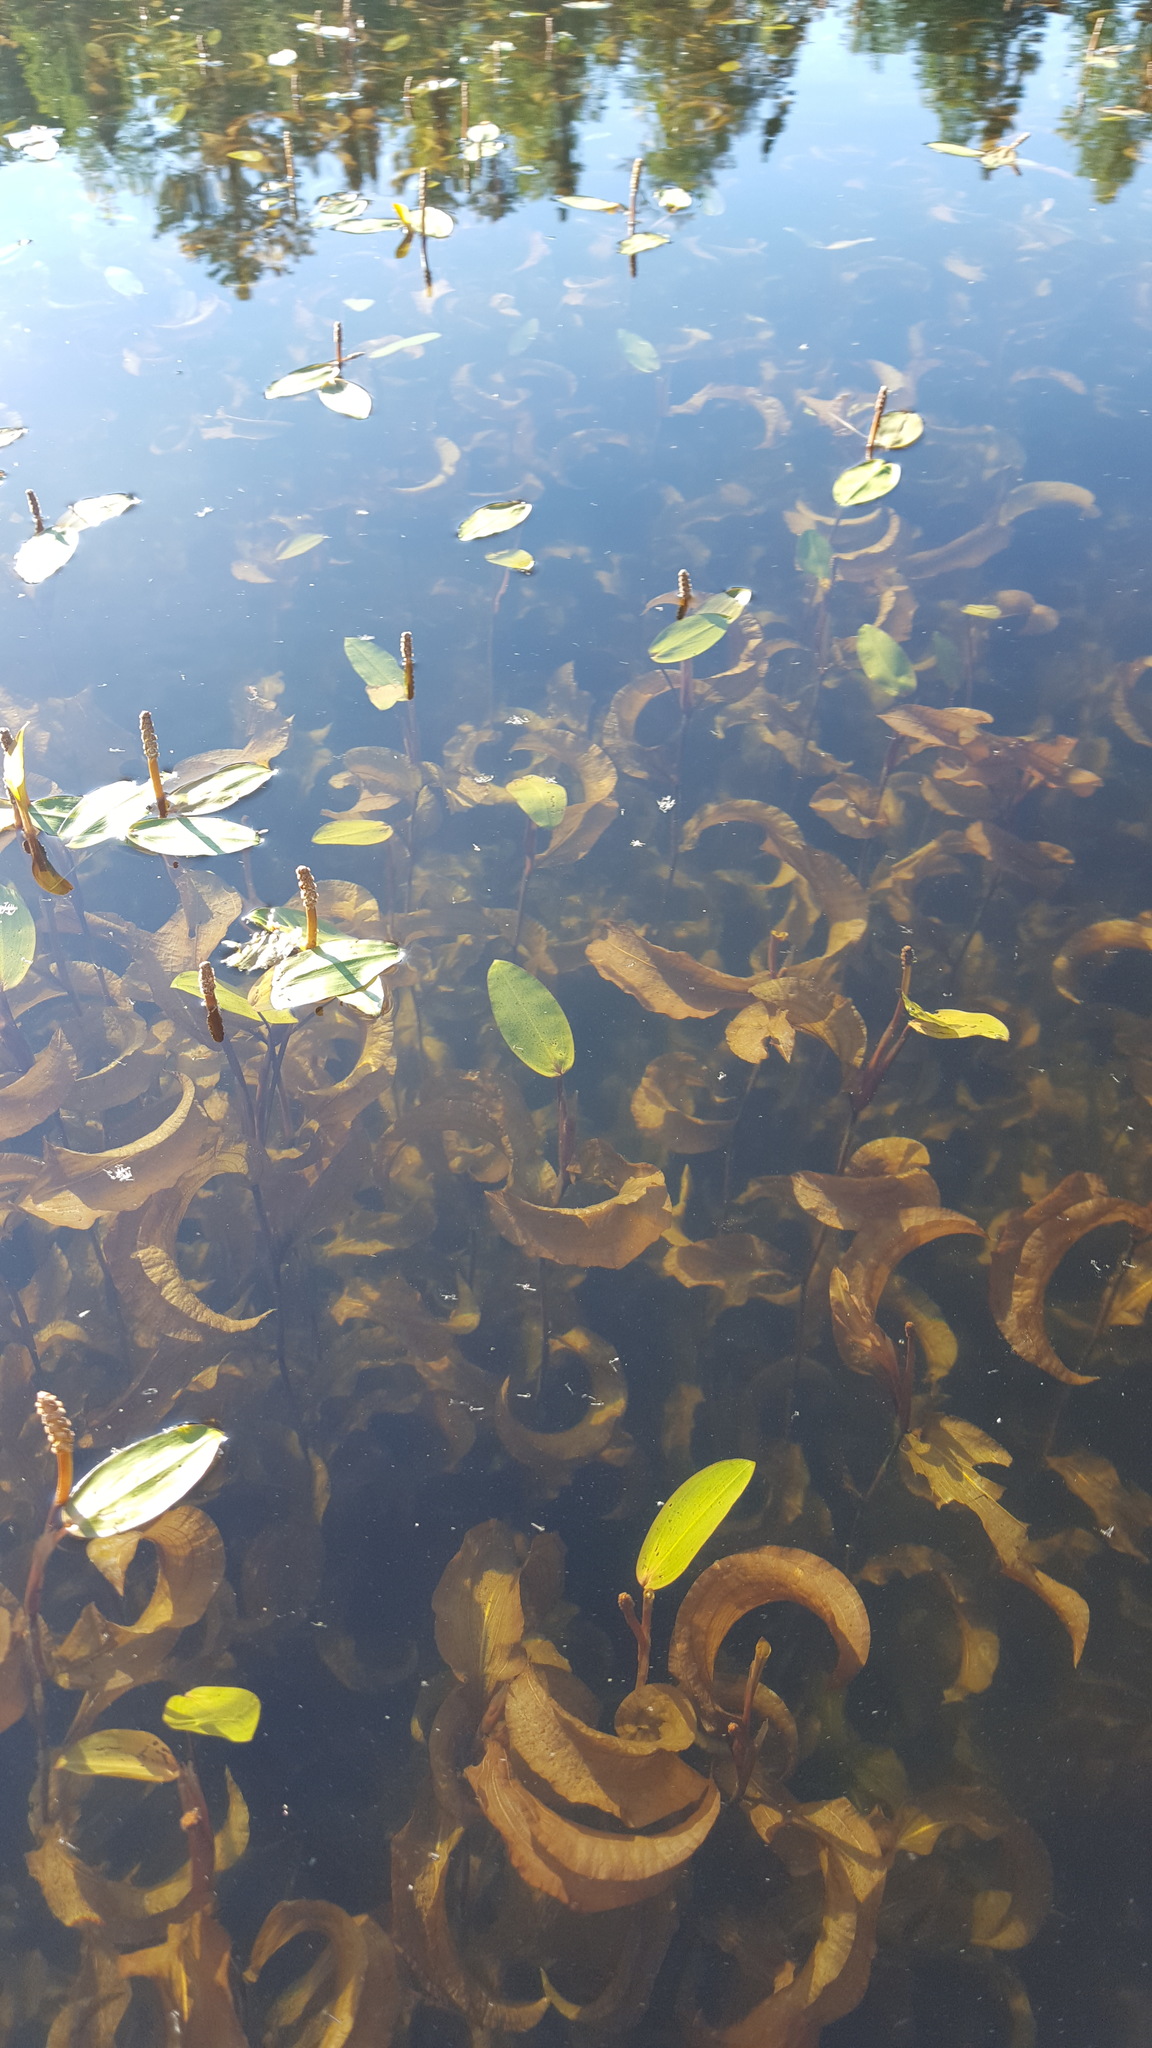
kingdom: Plantae
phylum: Tracheophyta
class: Liliopsida
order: Alismatales
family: Potamogetonaceae
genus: Potamogeton
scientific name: Potamogeton amplifolius
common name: Broad-leaved pondweed
